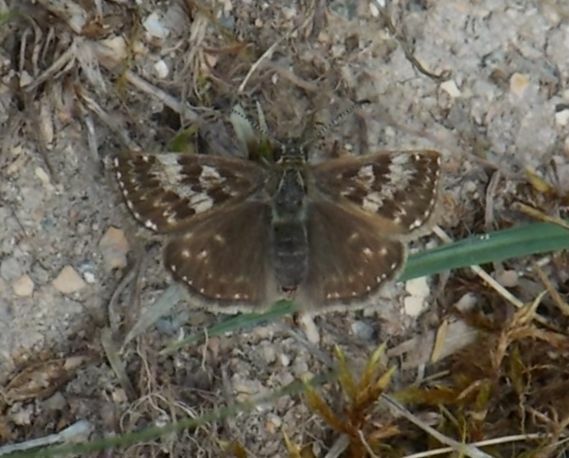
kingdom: Animalia
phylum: Arthropoda
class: Insecta
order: Lepidoptera
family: Hesperiidae
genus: Erynnis
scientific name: Erynnis tages
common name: Dingy skipper
